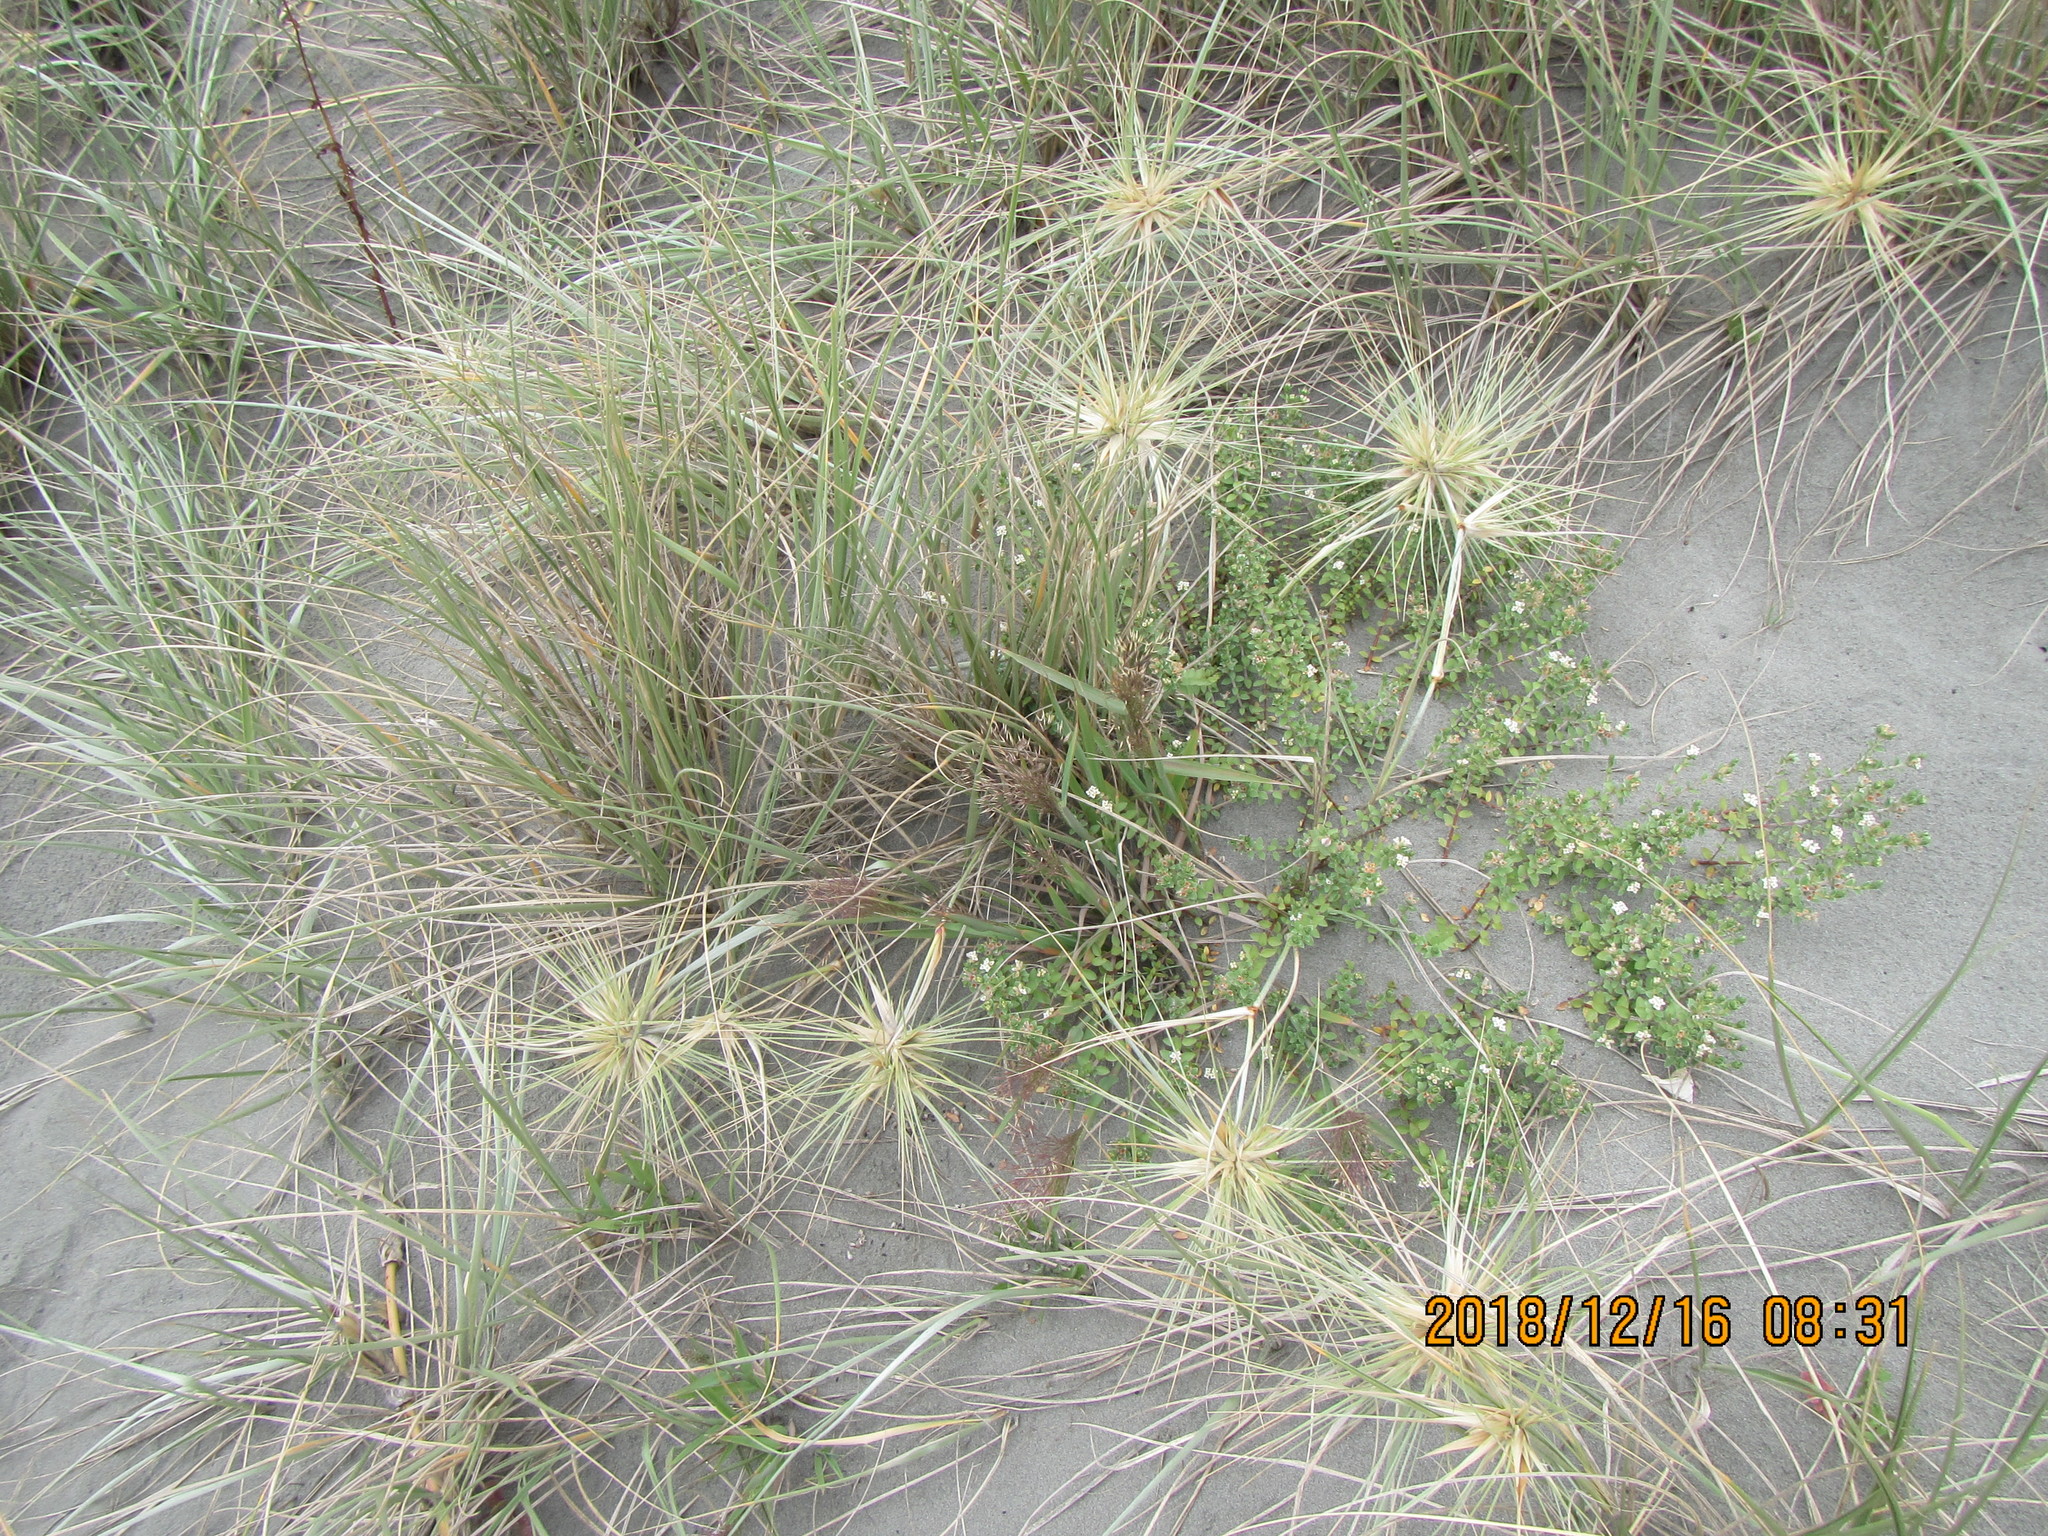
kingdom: Plantae
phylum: Tracheophyta
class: Liliopsida
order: Poales
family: Poaceae
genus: Lachnagrostis
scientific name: Lachnagrostis billardierei
